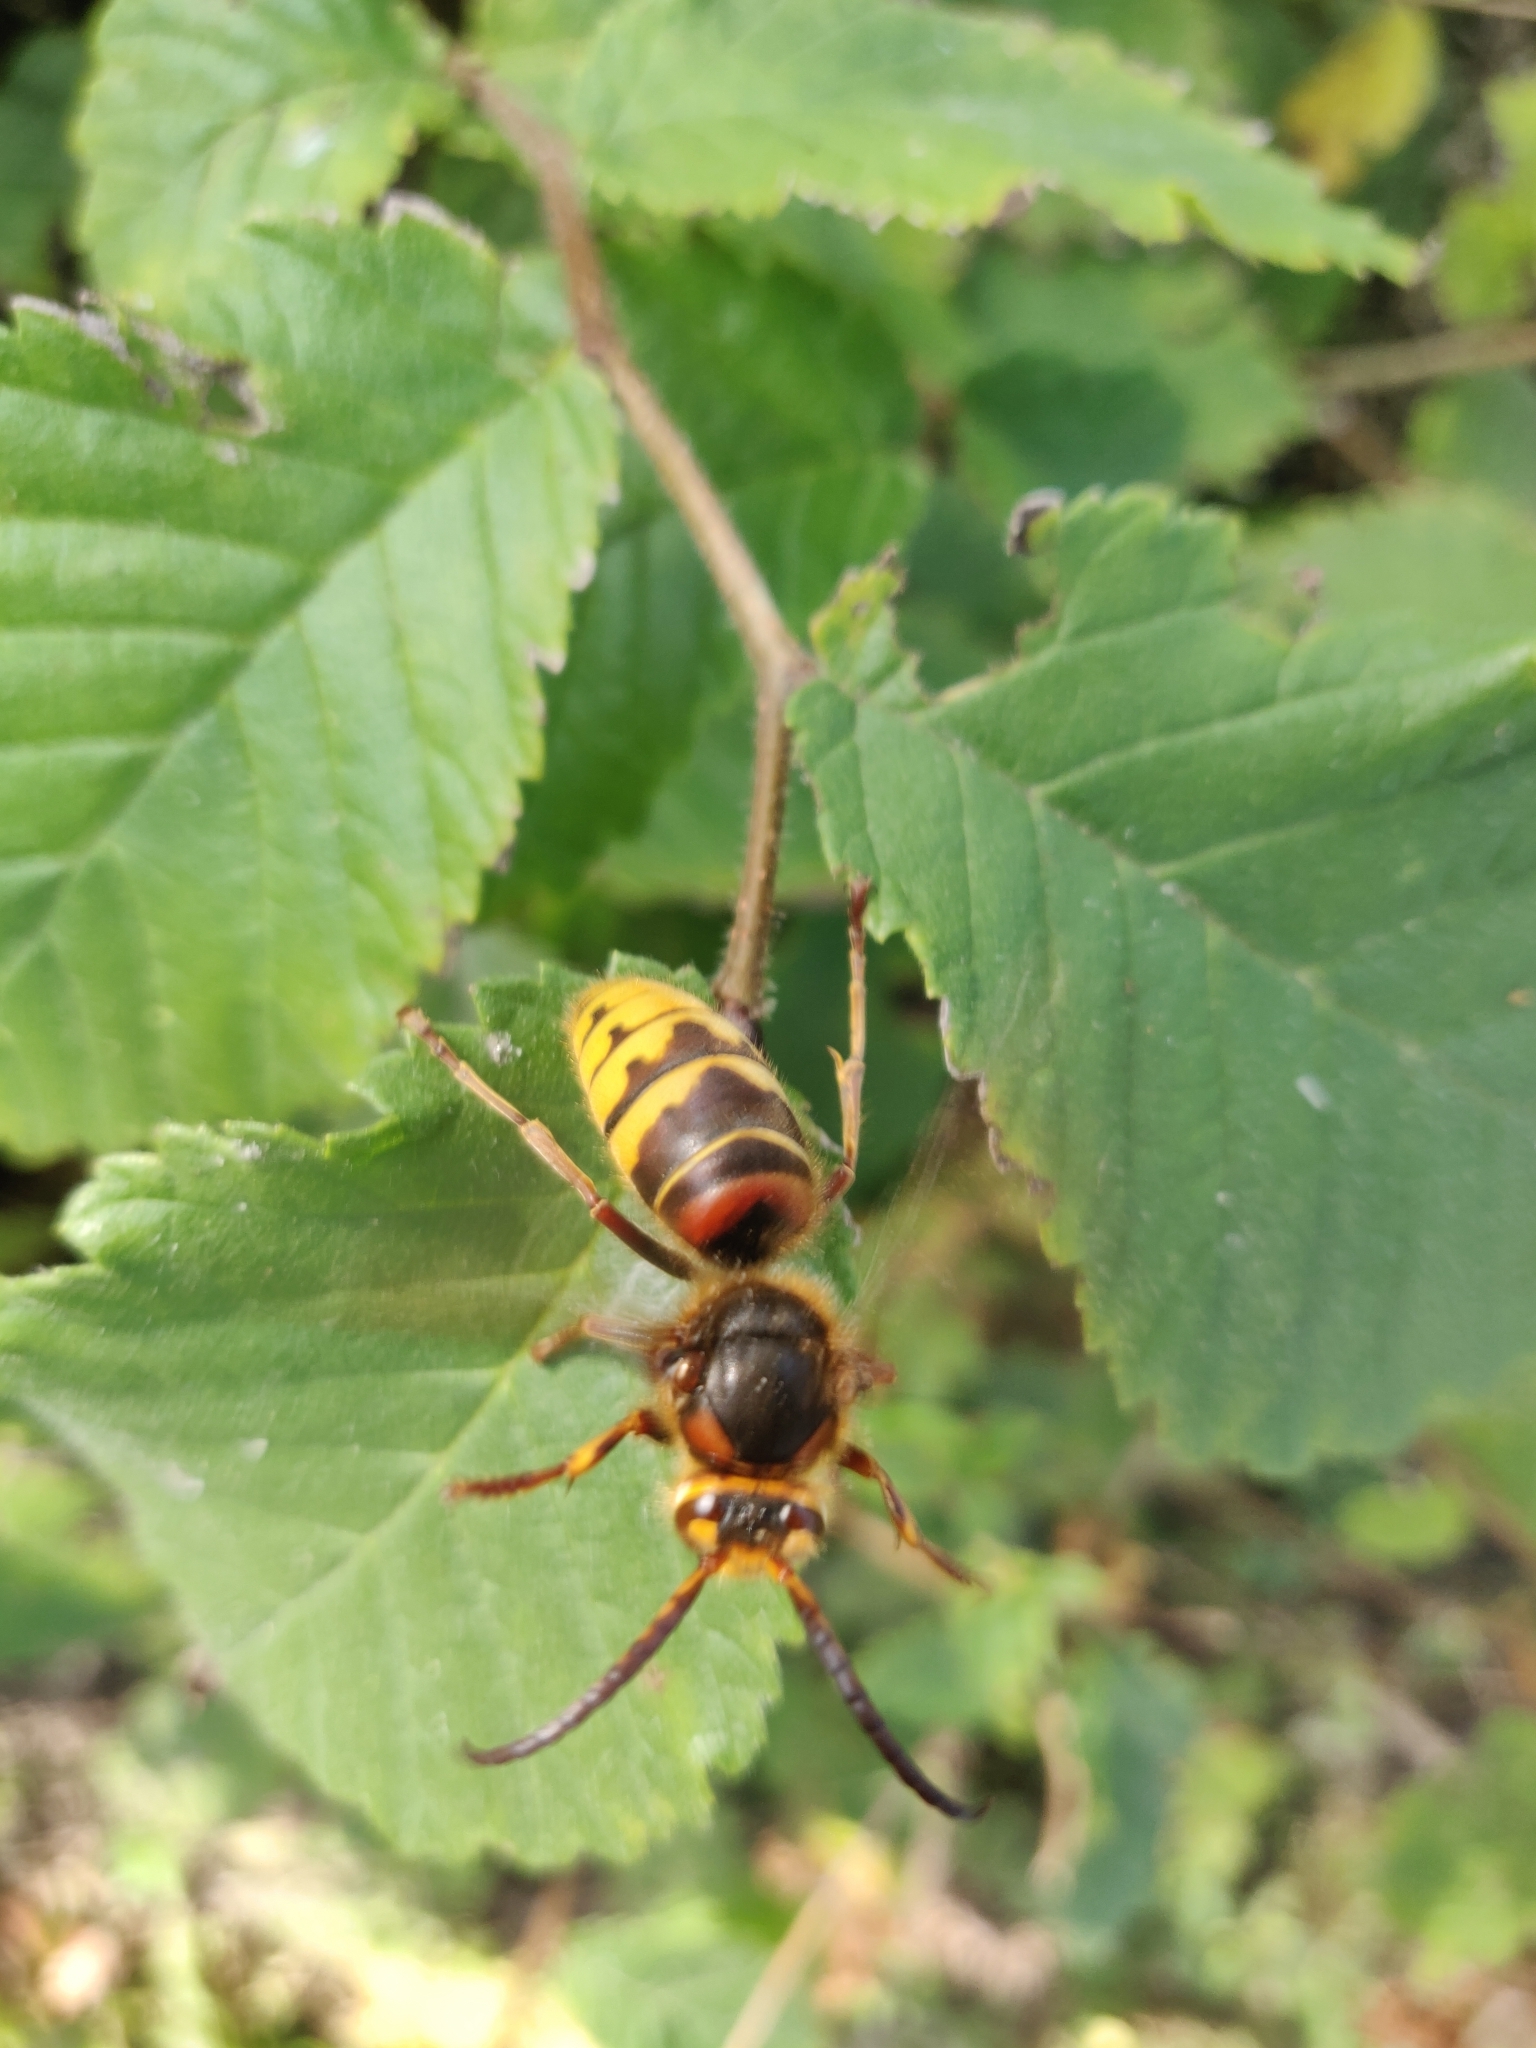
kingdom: Animalia
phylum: Arthropoda
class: Insecta
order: Hymenoptera
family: Vespidae
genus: Vespa
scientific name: Vespa crabro
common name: Hornet
